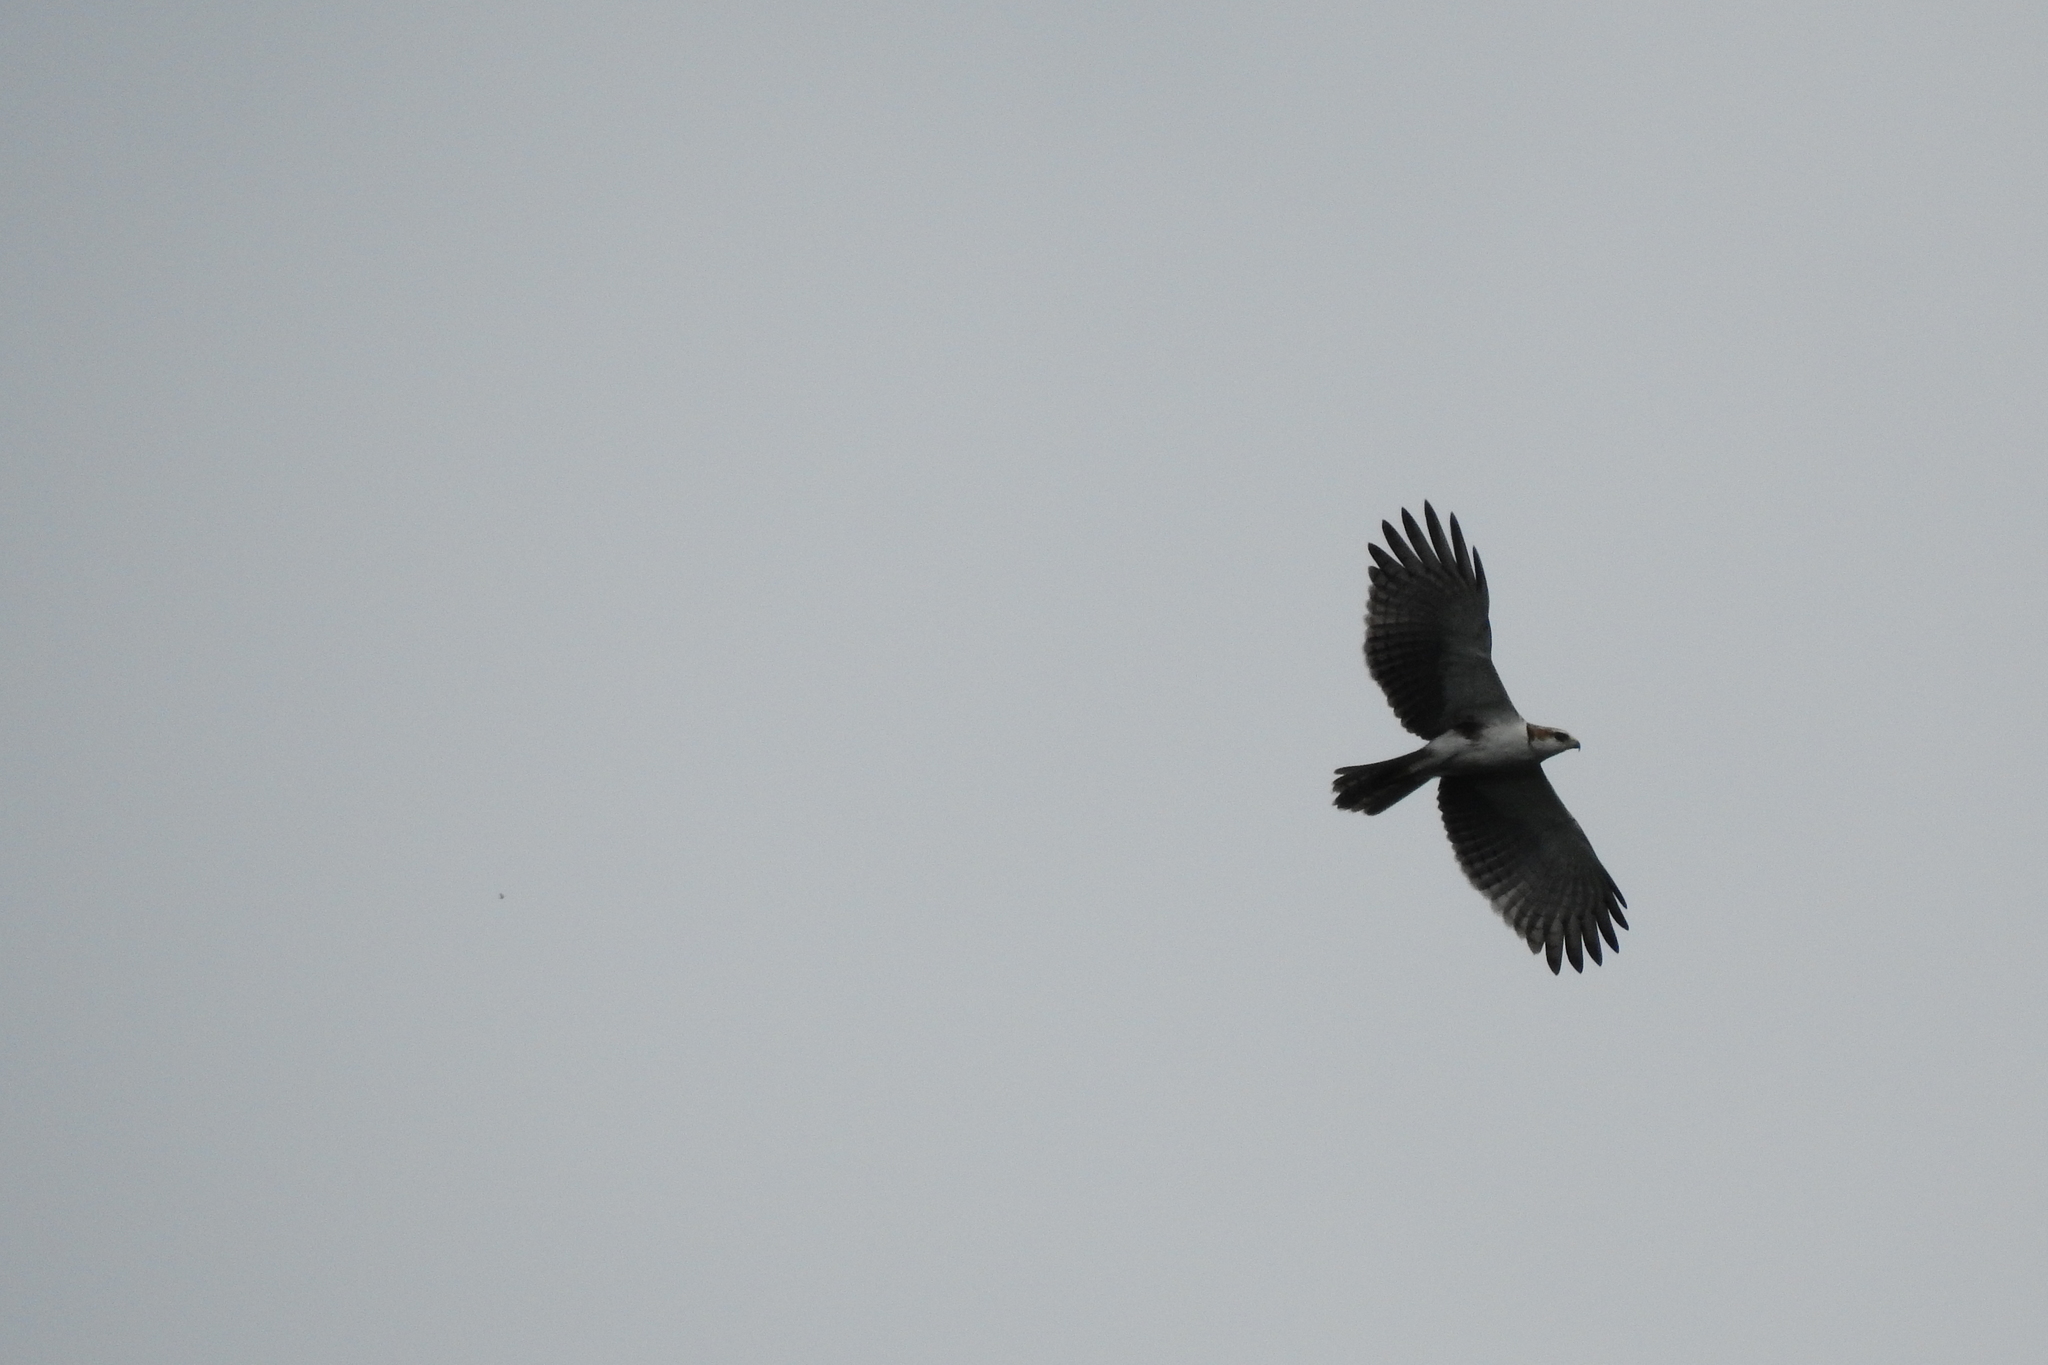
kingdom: Animalia
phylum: Chordata
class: Aves
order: Accipitriformes
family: Accipitridae
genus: Lophotriorchis
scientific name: Lophotriorchis kienerii
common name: Rufous-bellied eagle
